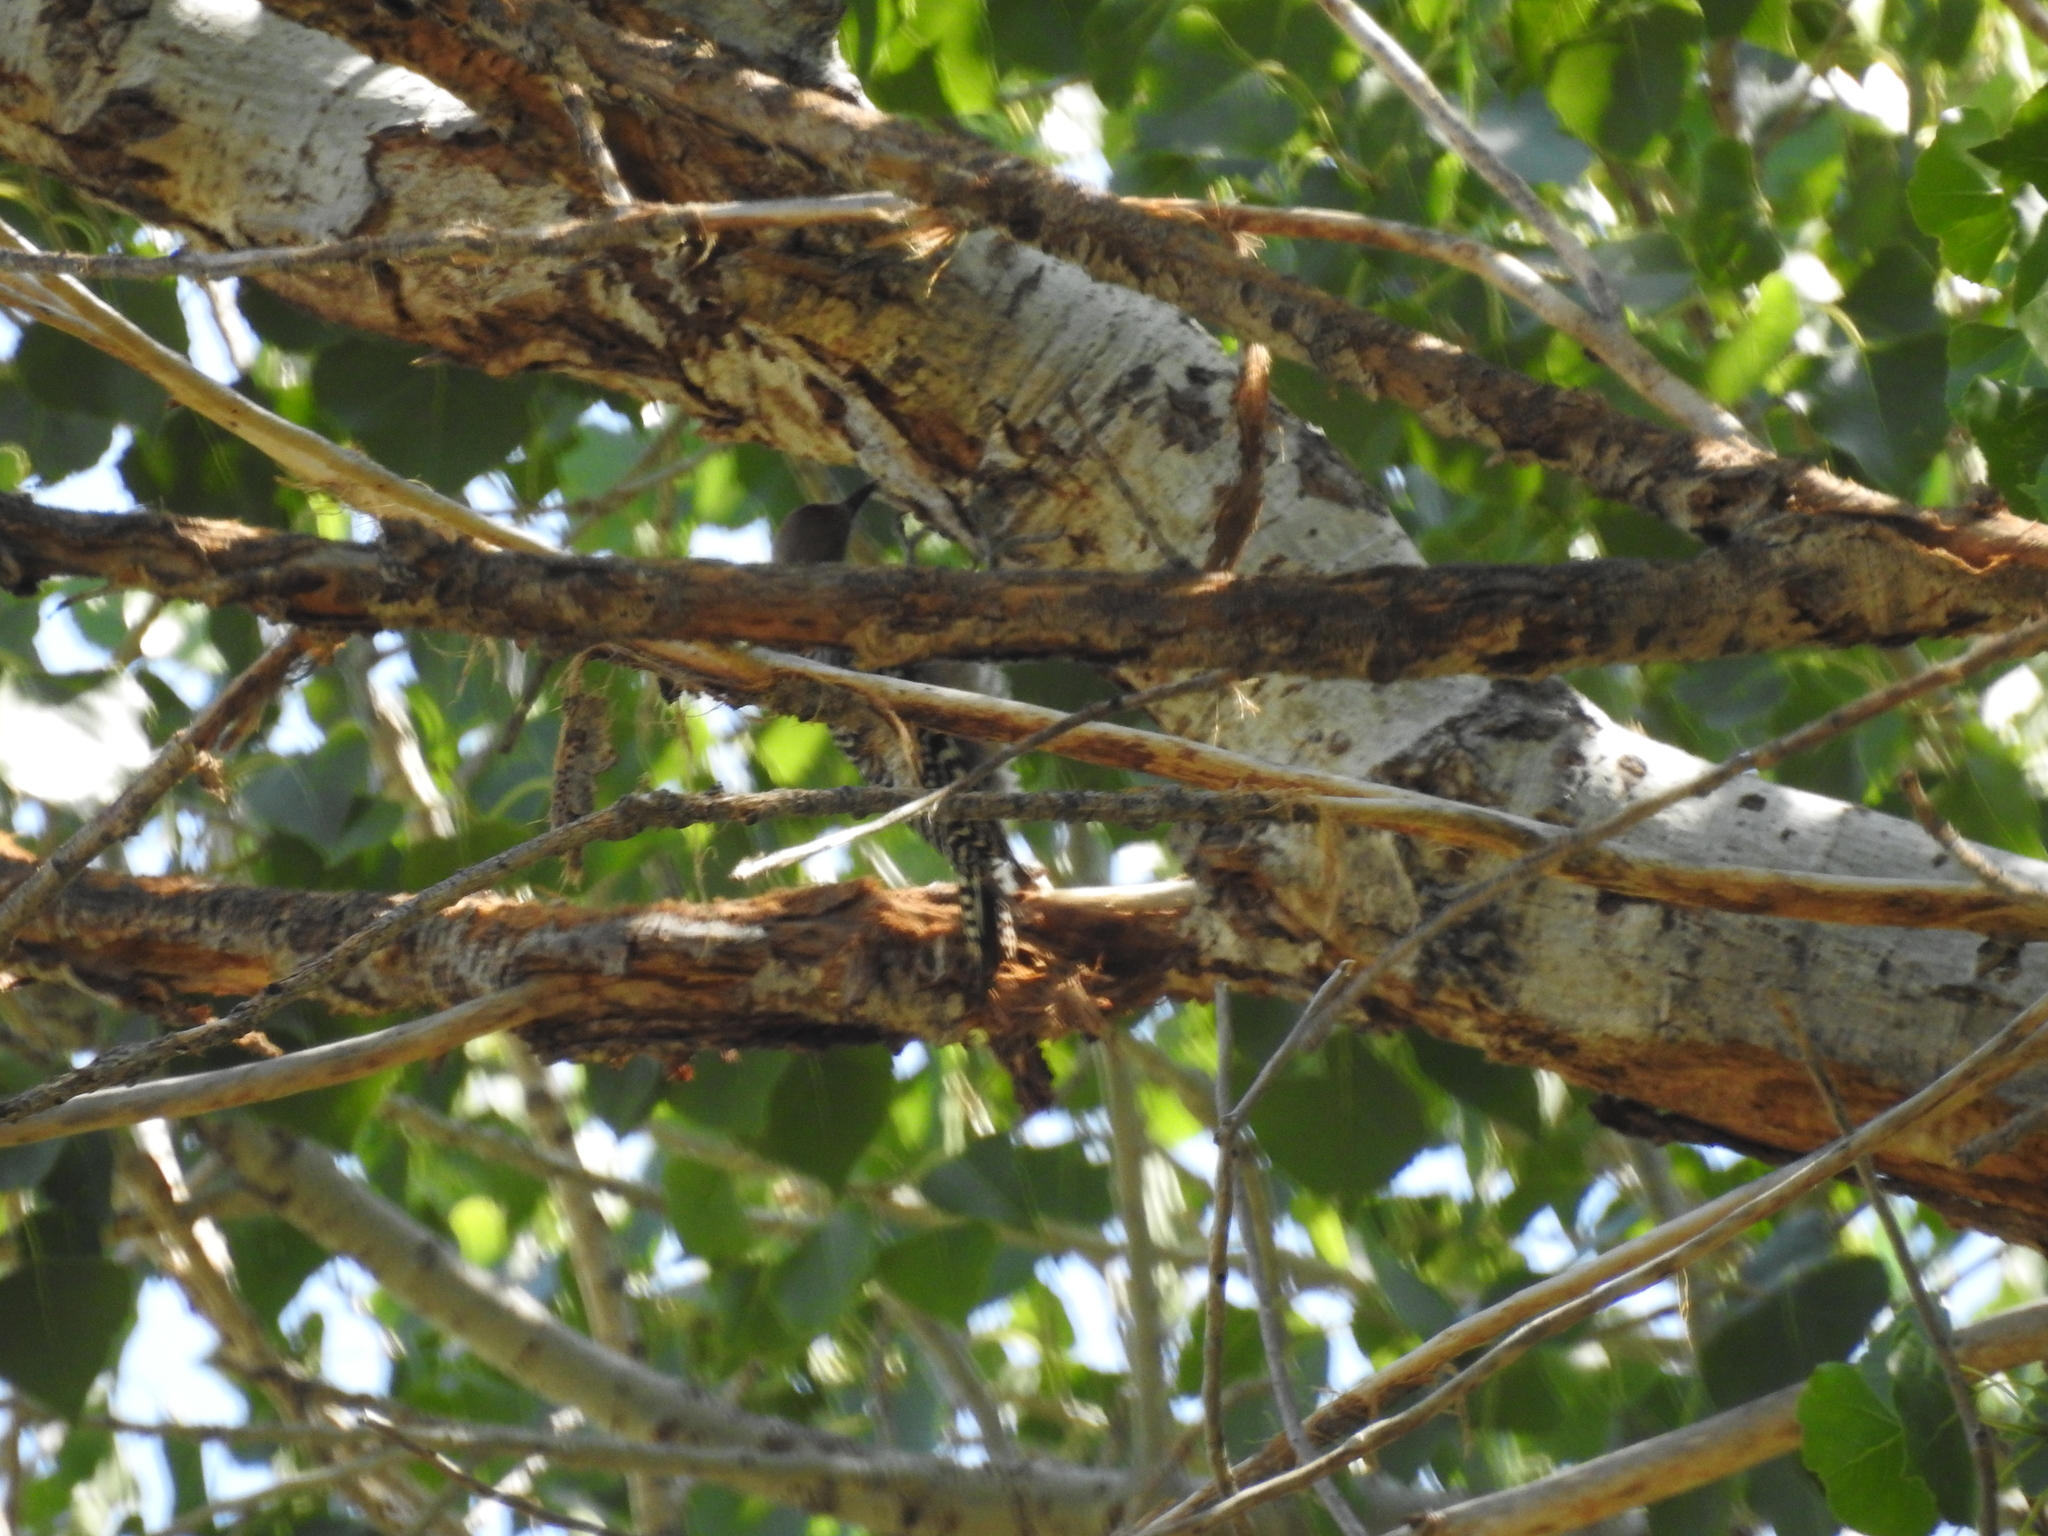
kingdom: Animalia
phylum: Chordata
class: Aves
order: Piciformes
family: Picidae
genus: Melanerpes
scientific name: Melanerpes uropygialis
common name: Gila woodpecker
